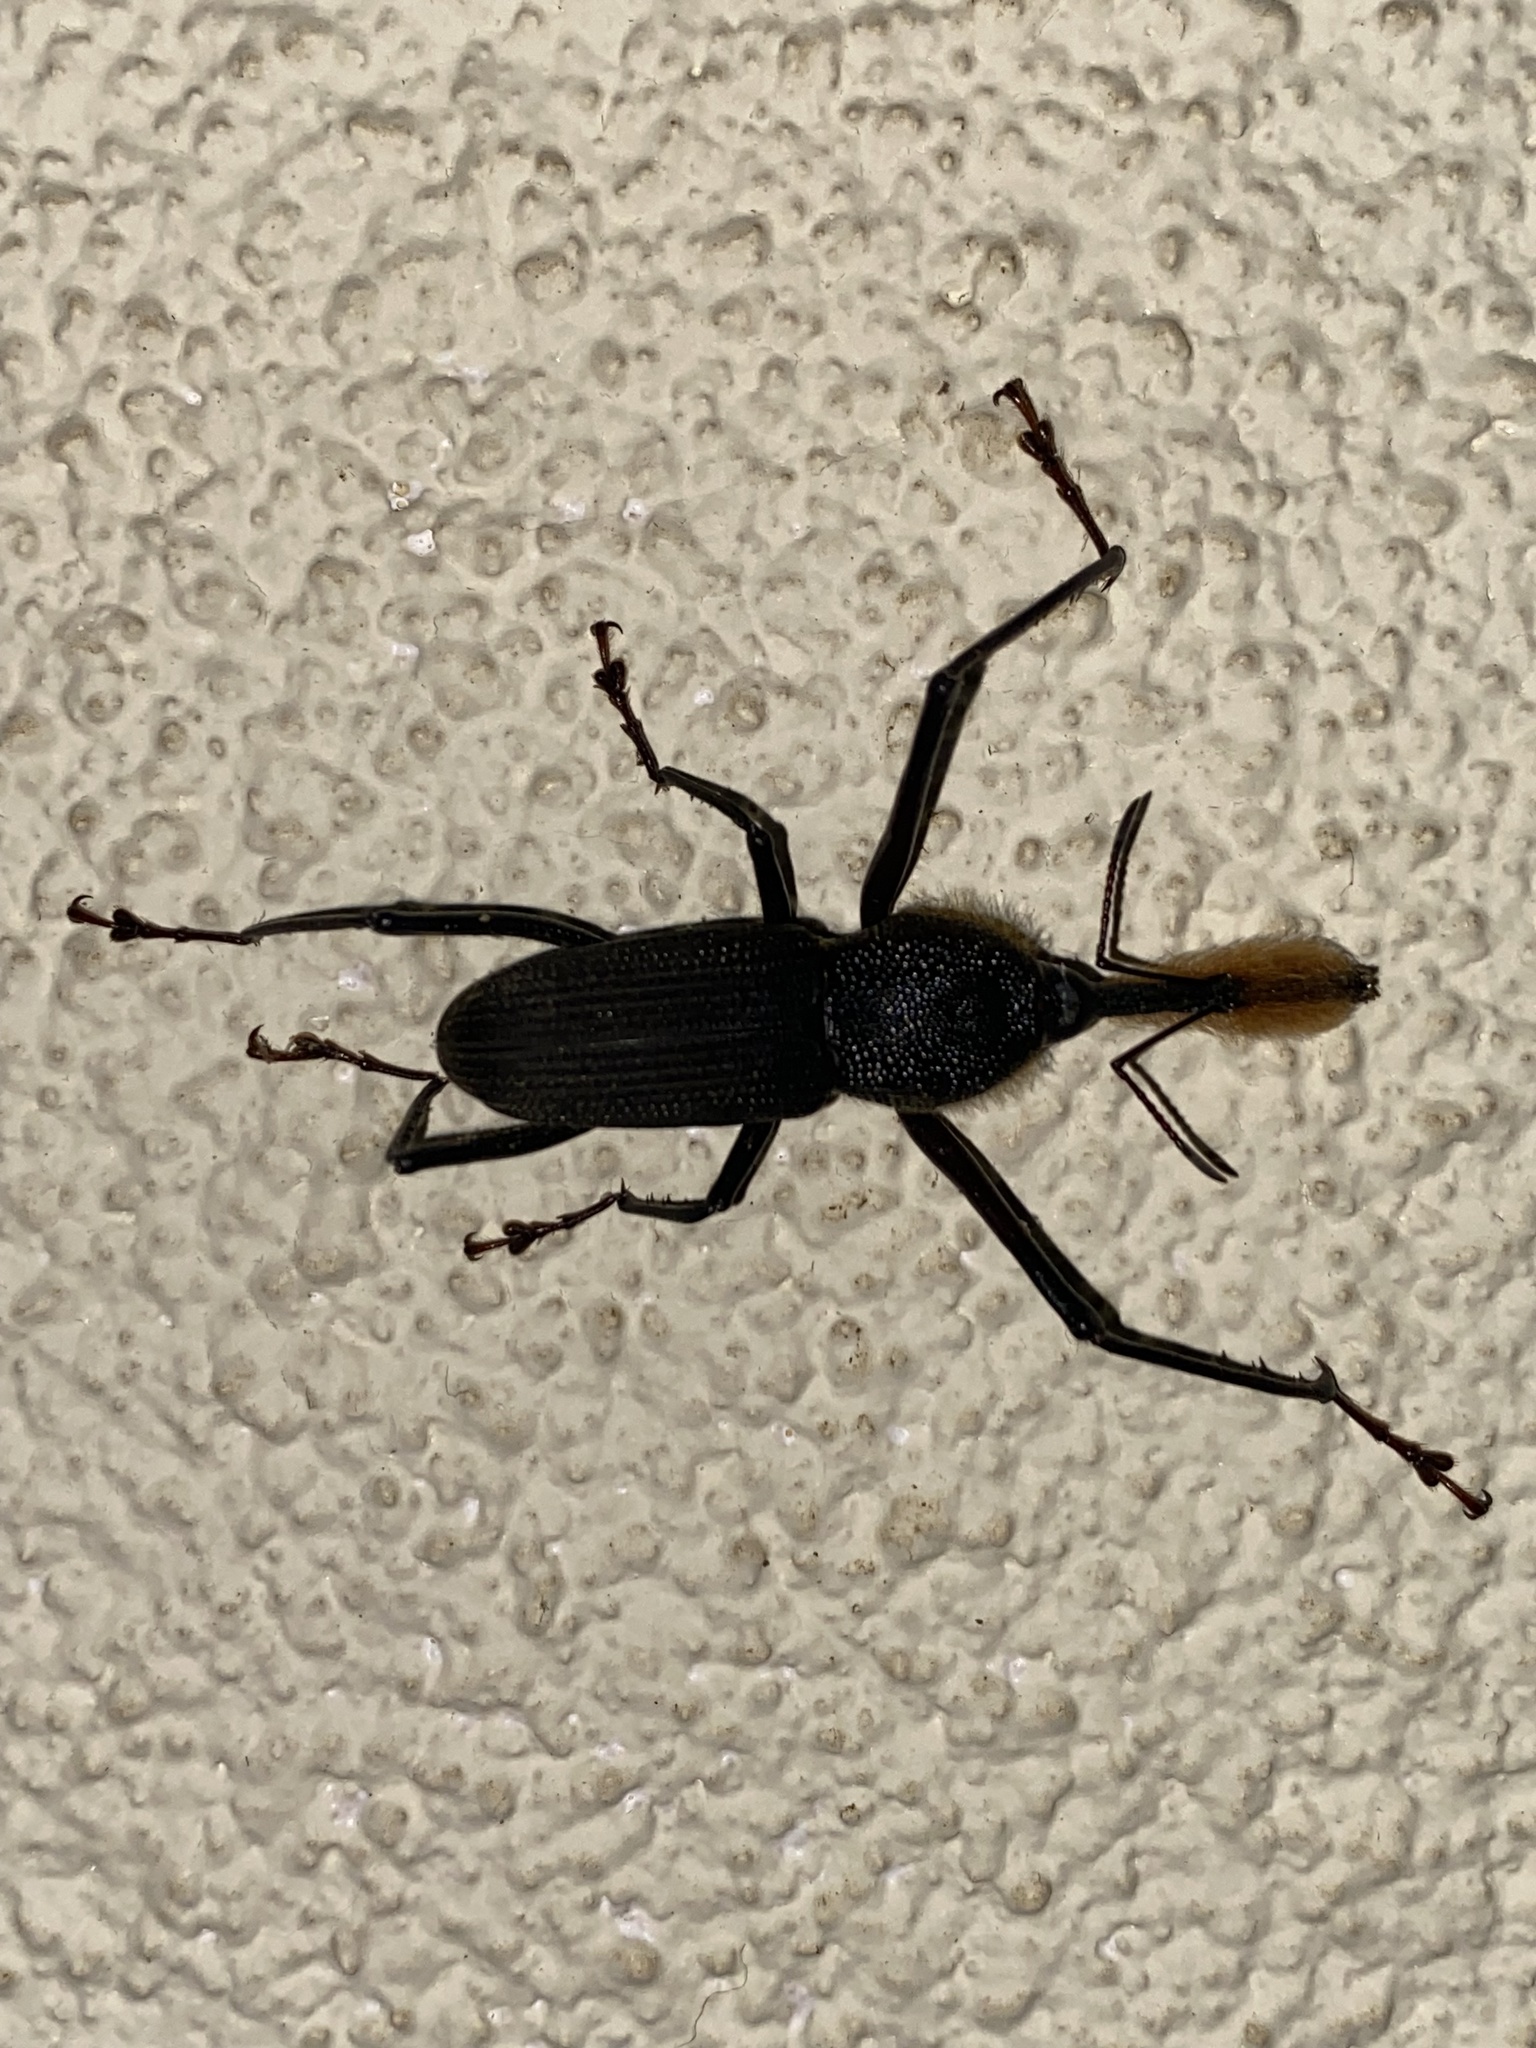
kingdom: Animalia
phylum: Arthropoda
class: Insecta
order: Coleoptera
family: Dryophthoridae
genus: Rhinostomus
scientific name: Rhinostomus barbirostris
